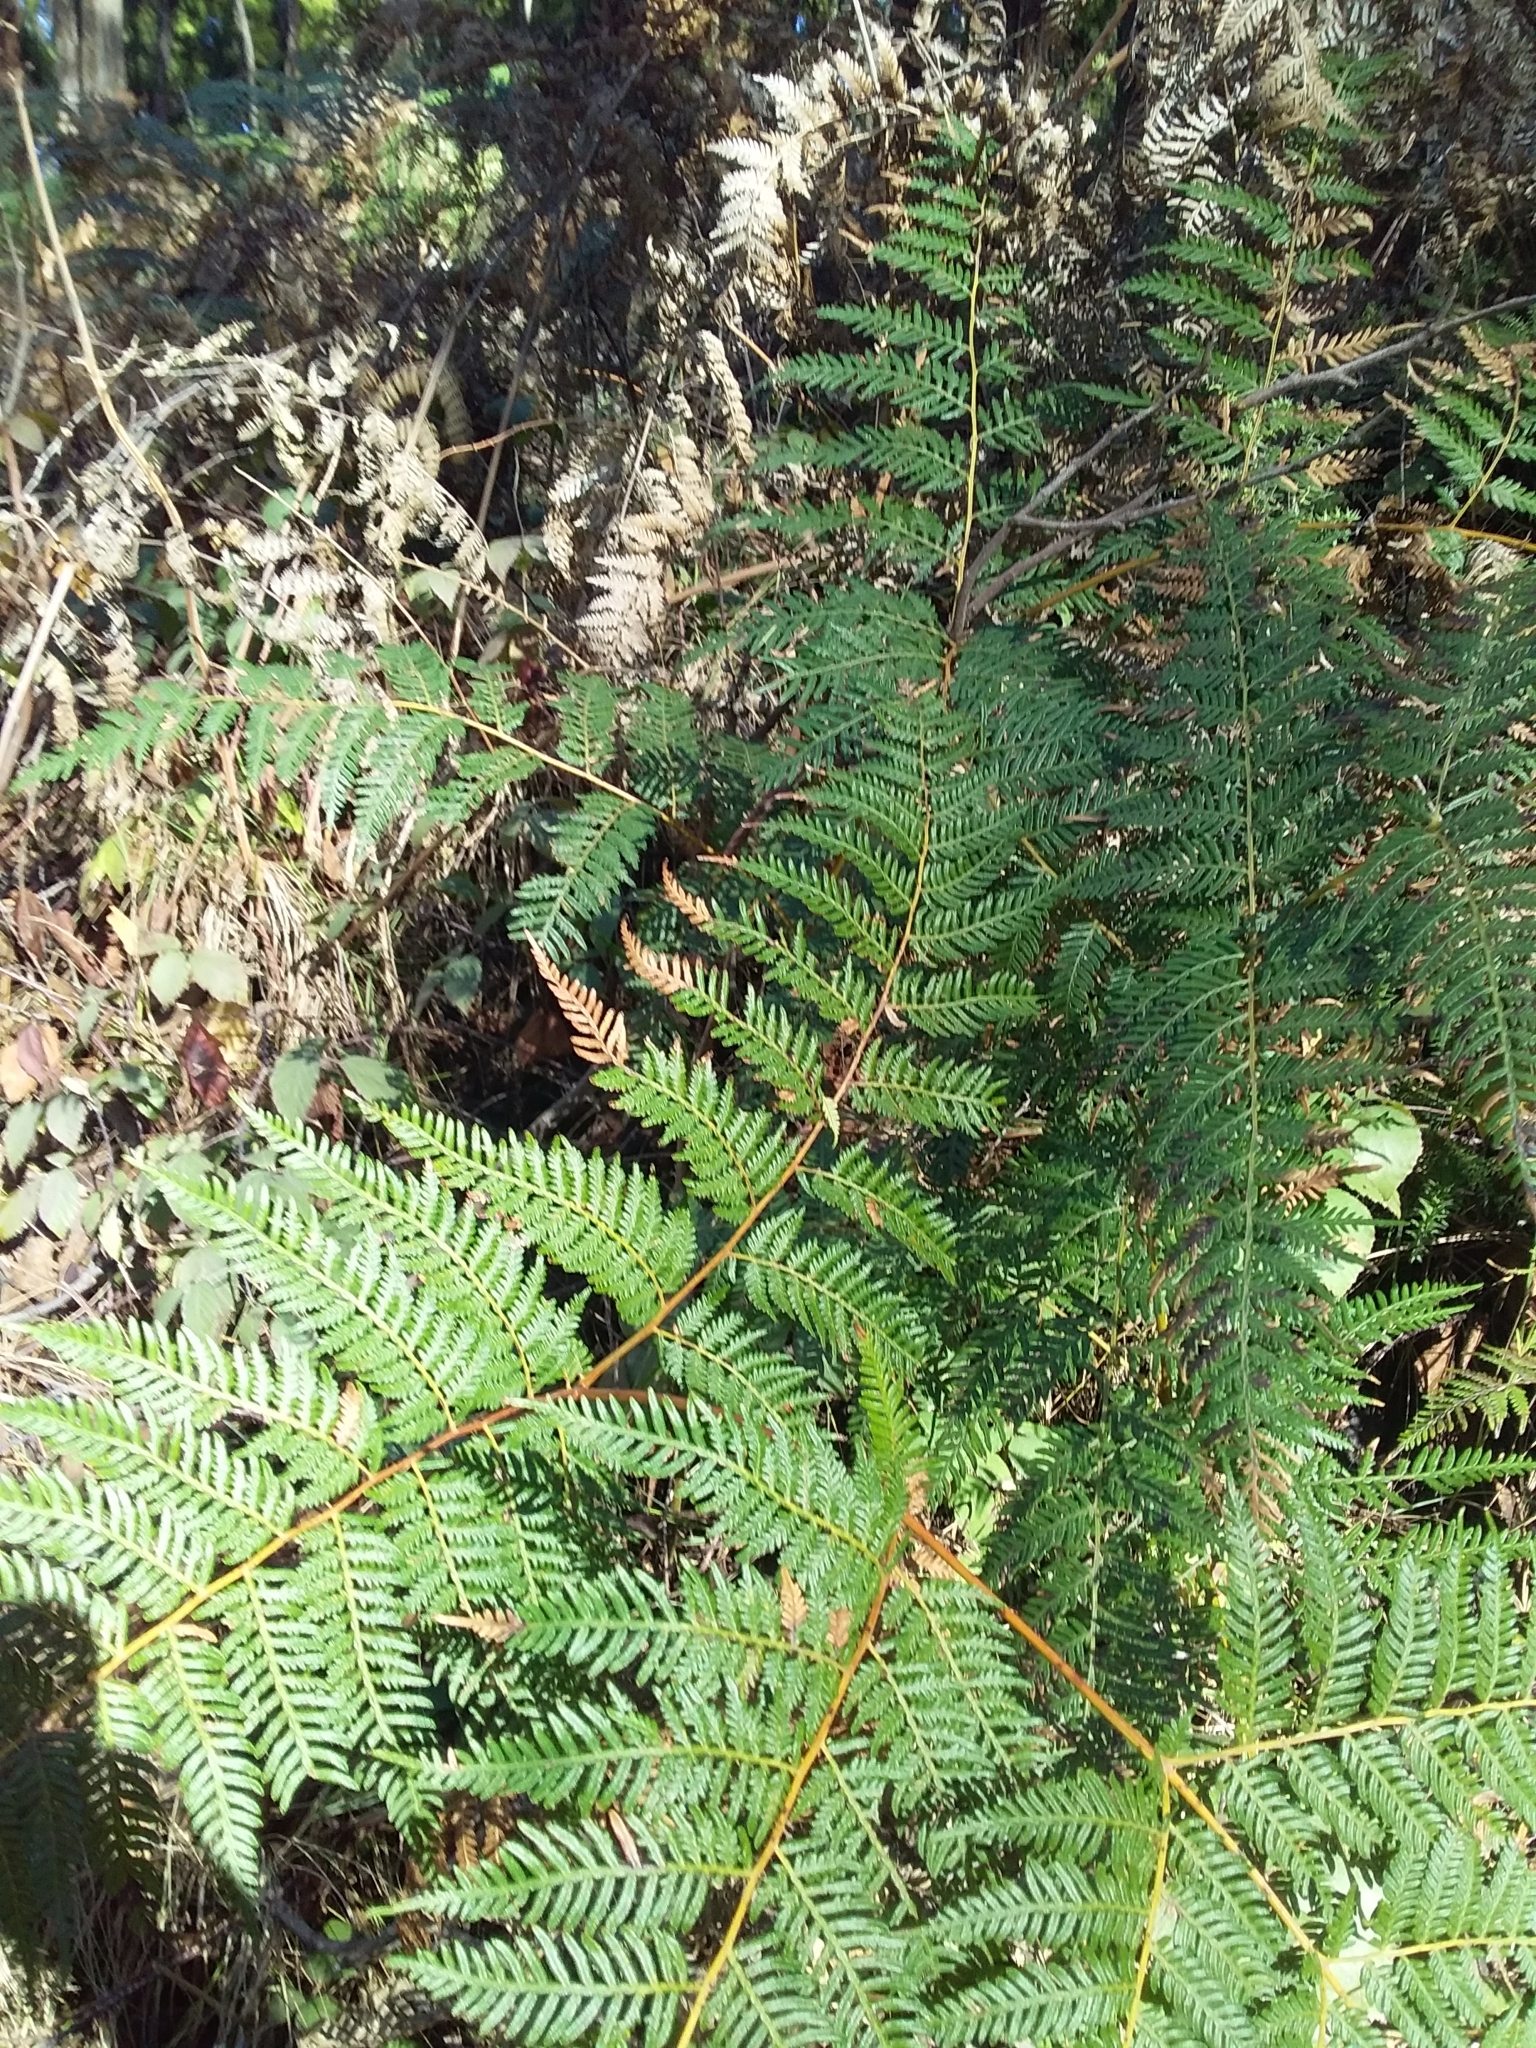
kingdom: Plantae
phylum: Tracheophyta
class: Polypodiopsida
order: Polypodiales
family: Dennstaedtiaceae
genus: Pteridium
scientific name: Pteridium esculentum
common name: Bracken fern
